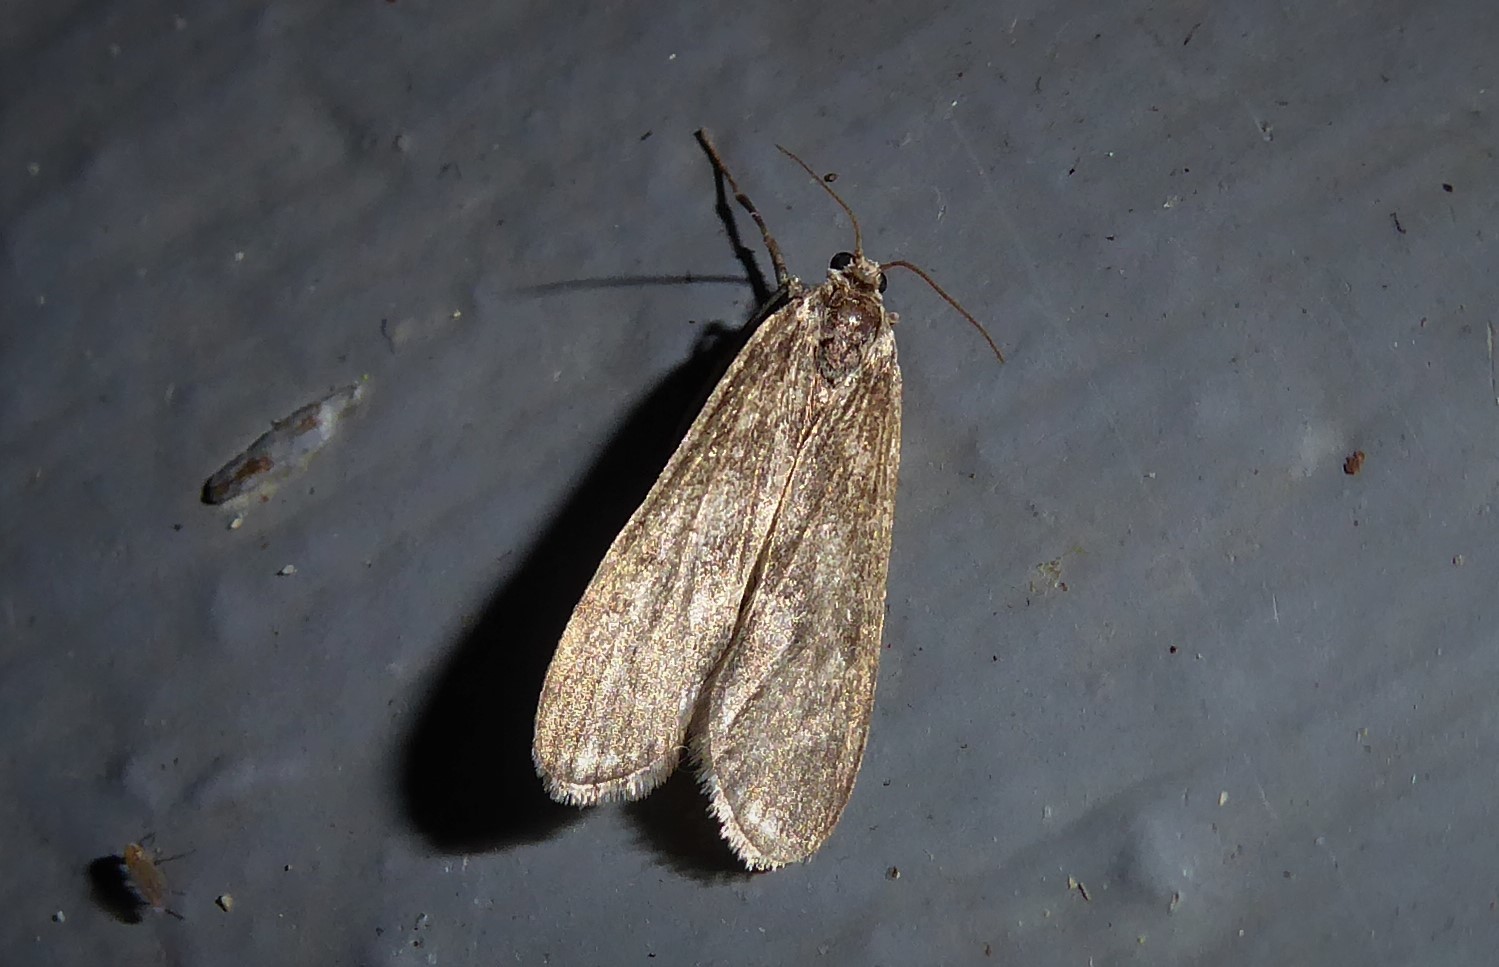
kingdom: Animalia
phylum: Arthropoda
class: Insecta
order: Lepidoptera
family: Crambidae
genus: Hygraula
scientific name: Hygraula nitens
